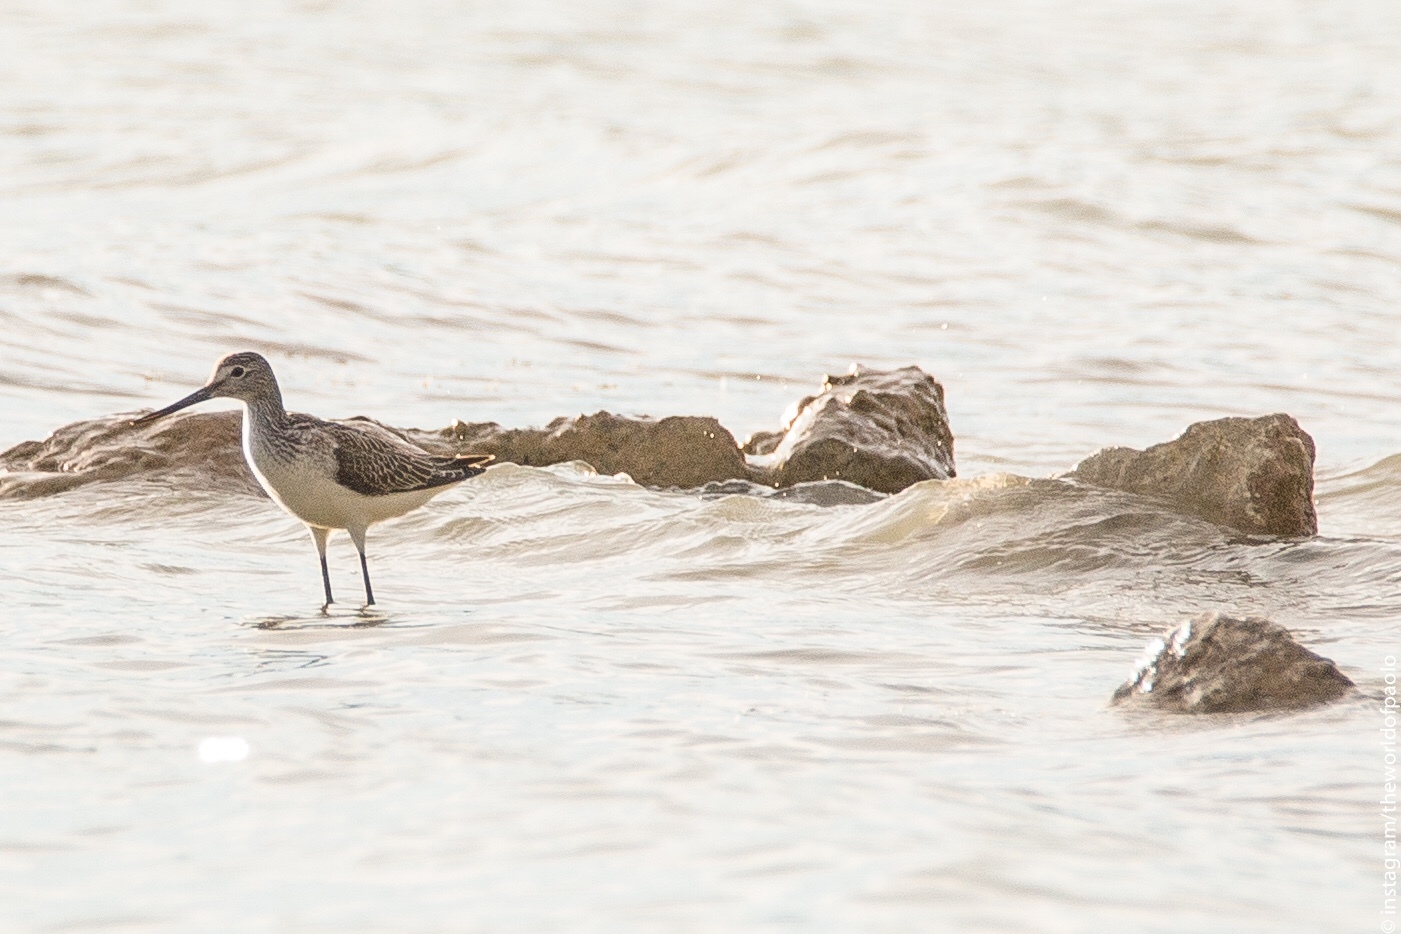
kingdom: Animalia
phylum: Chordata
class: Aves
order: Charadriiformes
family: Scolopacidae
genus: Tringa
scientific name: Tringa nebularia
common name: Common greenshank
